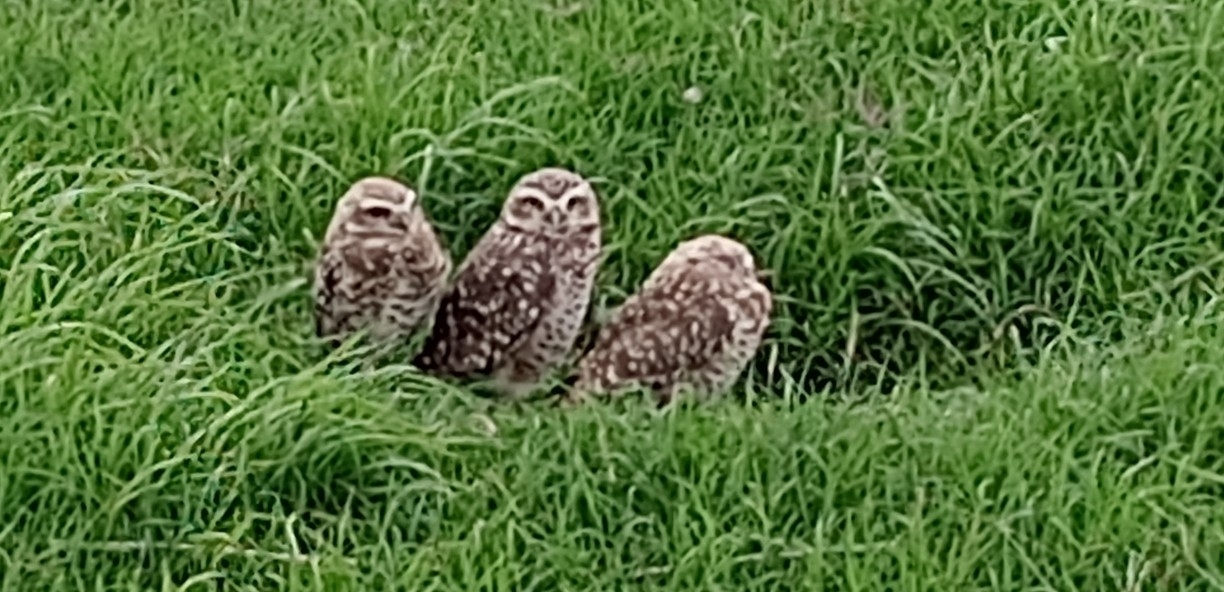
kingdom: Animalia
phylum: Chordata
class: Aves
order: Strigiformes
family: Strigidae
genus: Athene
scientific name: Athene cunicularia
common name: Burrowing owl
